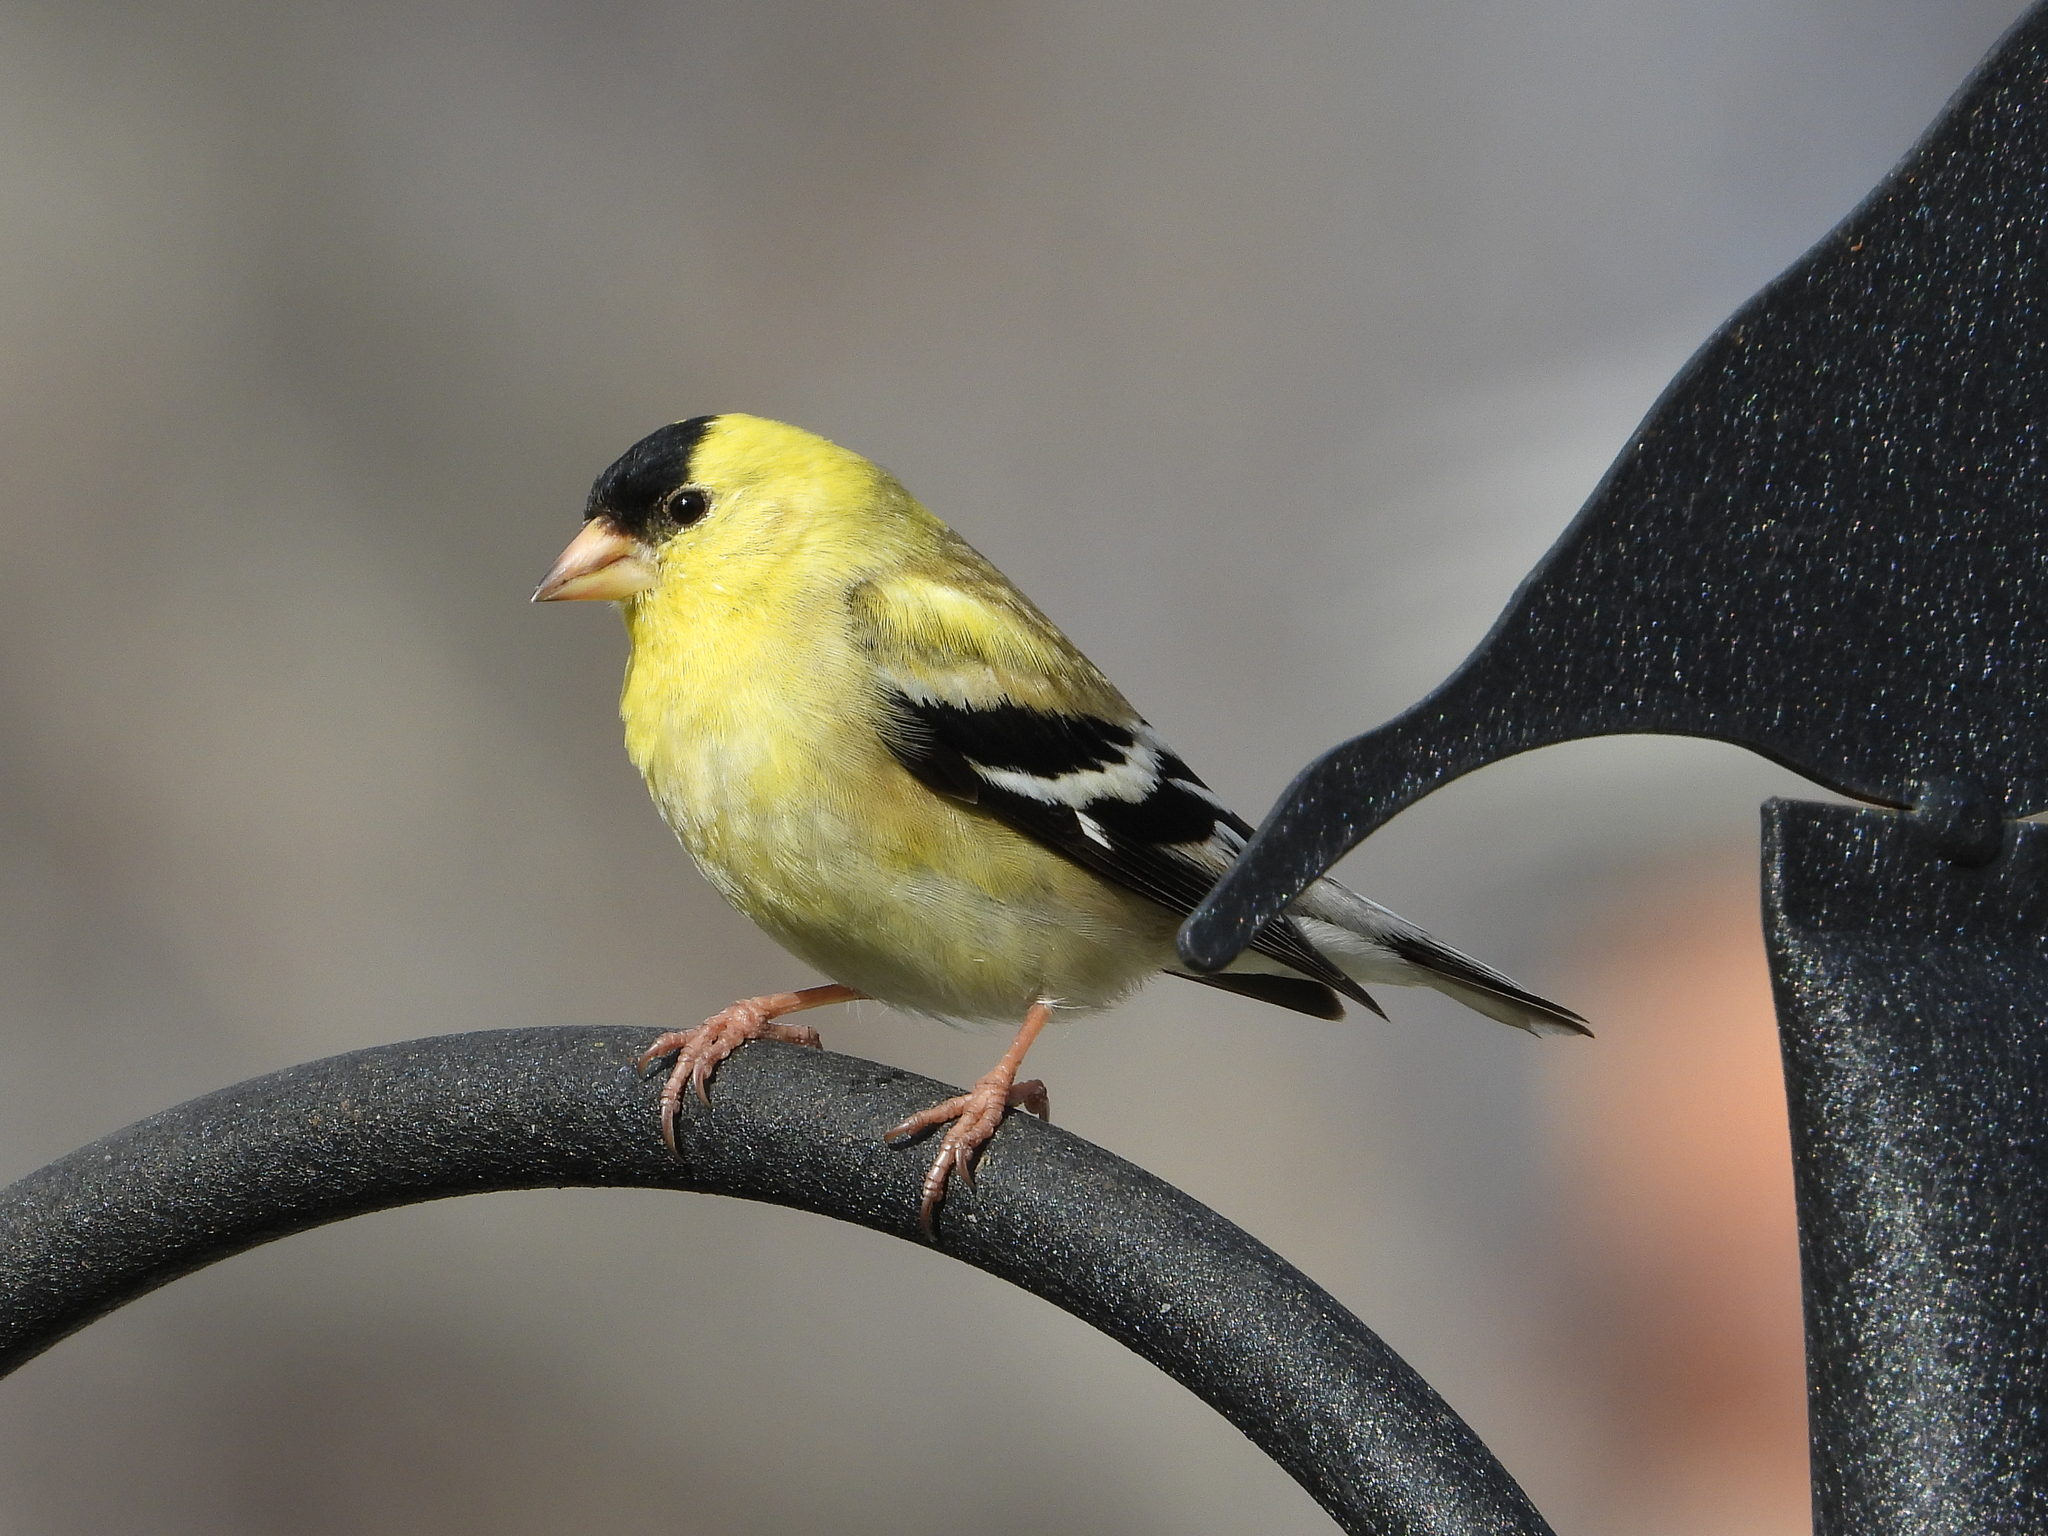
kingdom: Animalia
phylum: Chordata
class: Aves
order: Passeriformes
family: Fringillidae
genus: Spinus
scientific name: Spinus tristis
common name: American goldfinch
